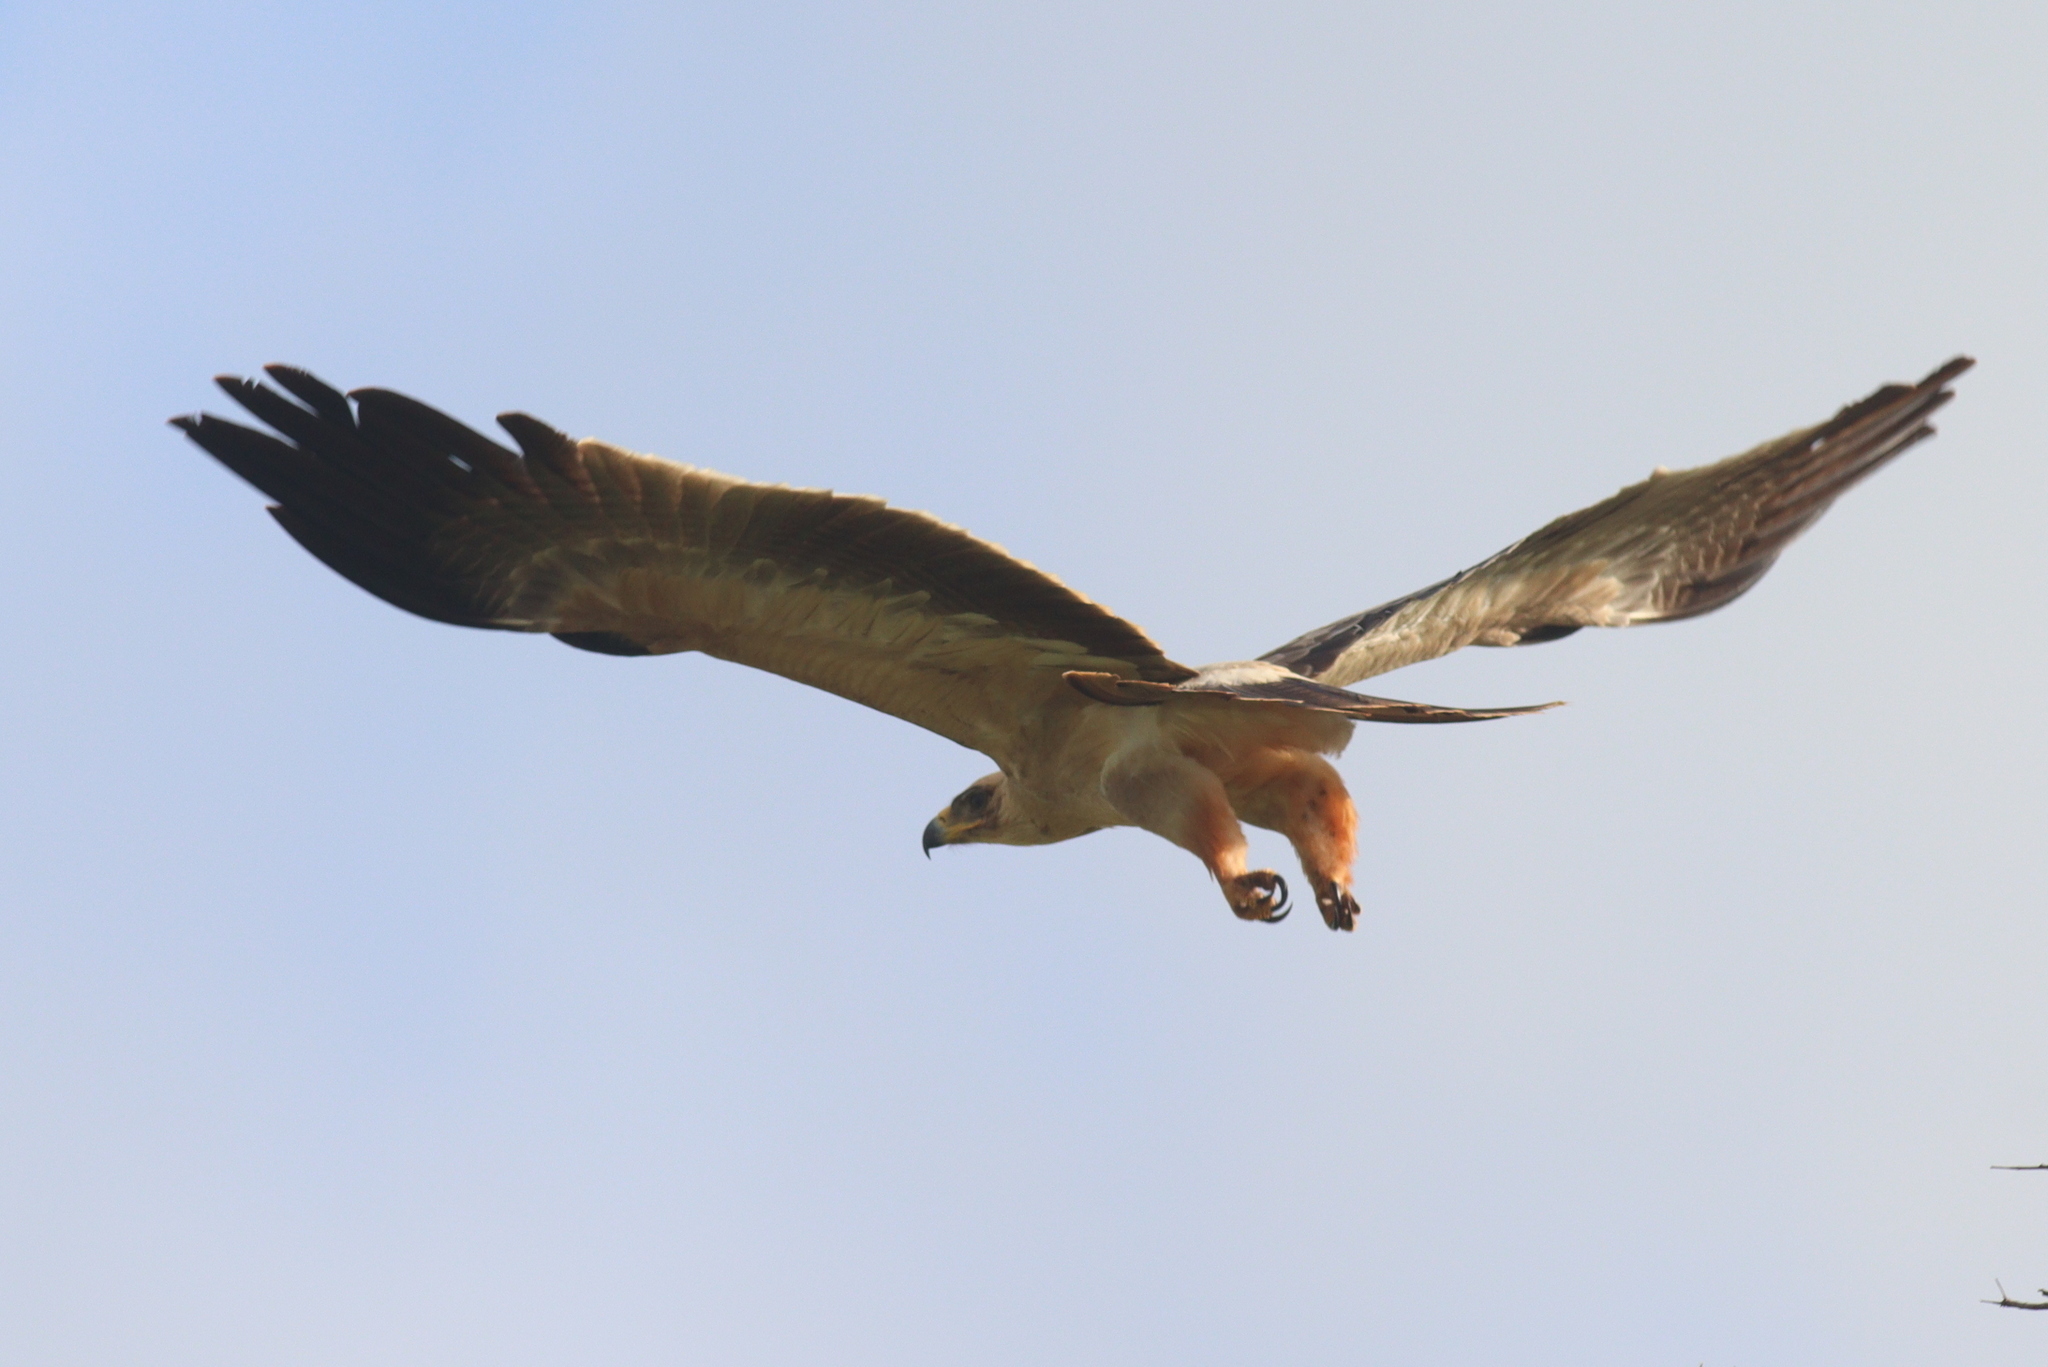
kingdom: Animalia
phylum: Chordata
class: Aves
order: Accipitriformes
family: Accipitridae
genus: Aquila
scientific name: Aquila rapax
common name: Tawny eagle
